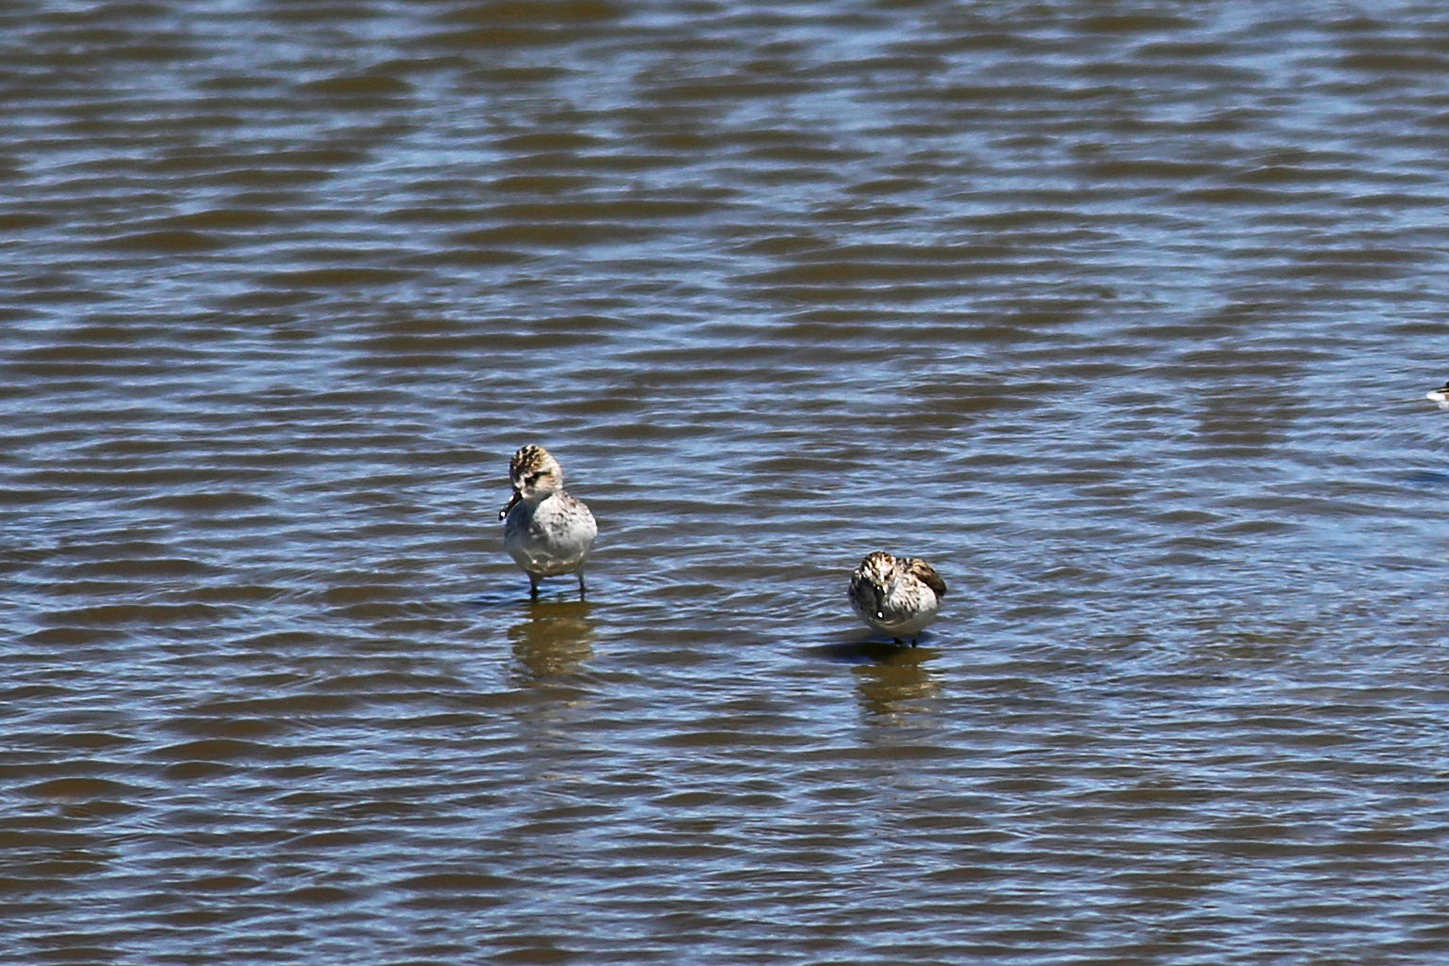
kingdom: Animalia
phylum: Chordata
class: Aves
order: Charadriiformes
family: Scolopacidae
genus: Calidris
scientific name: Calidris pusilla
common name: Semipalmated sandpiper
